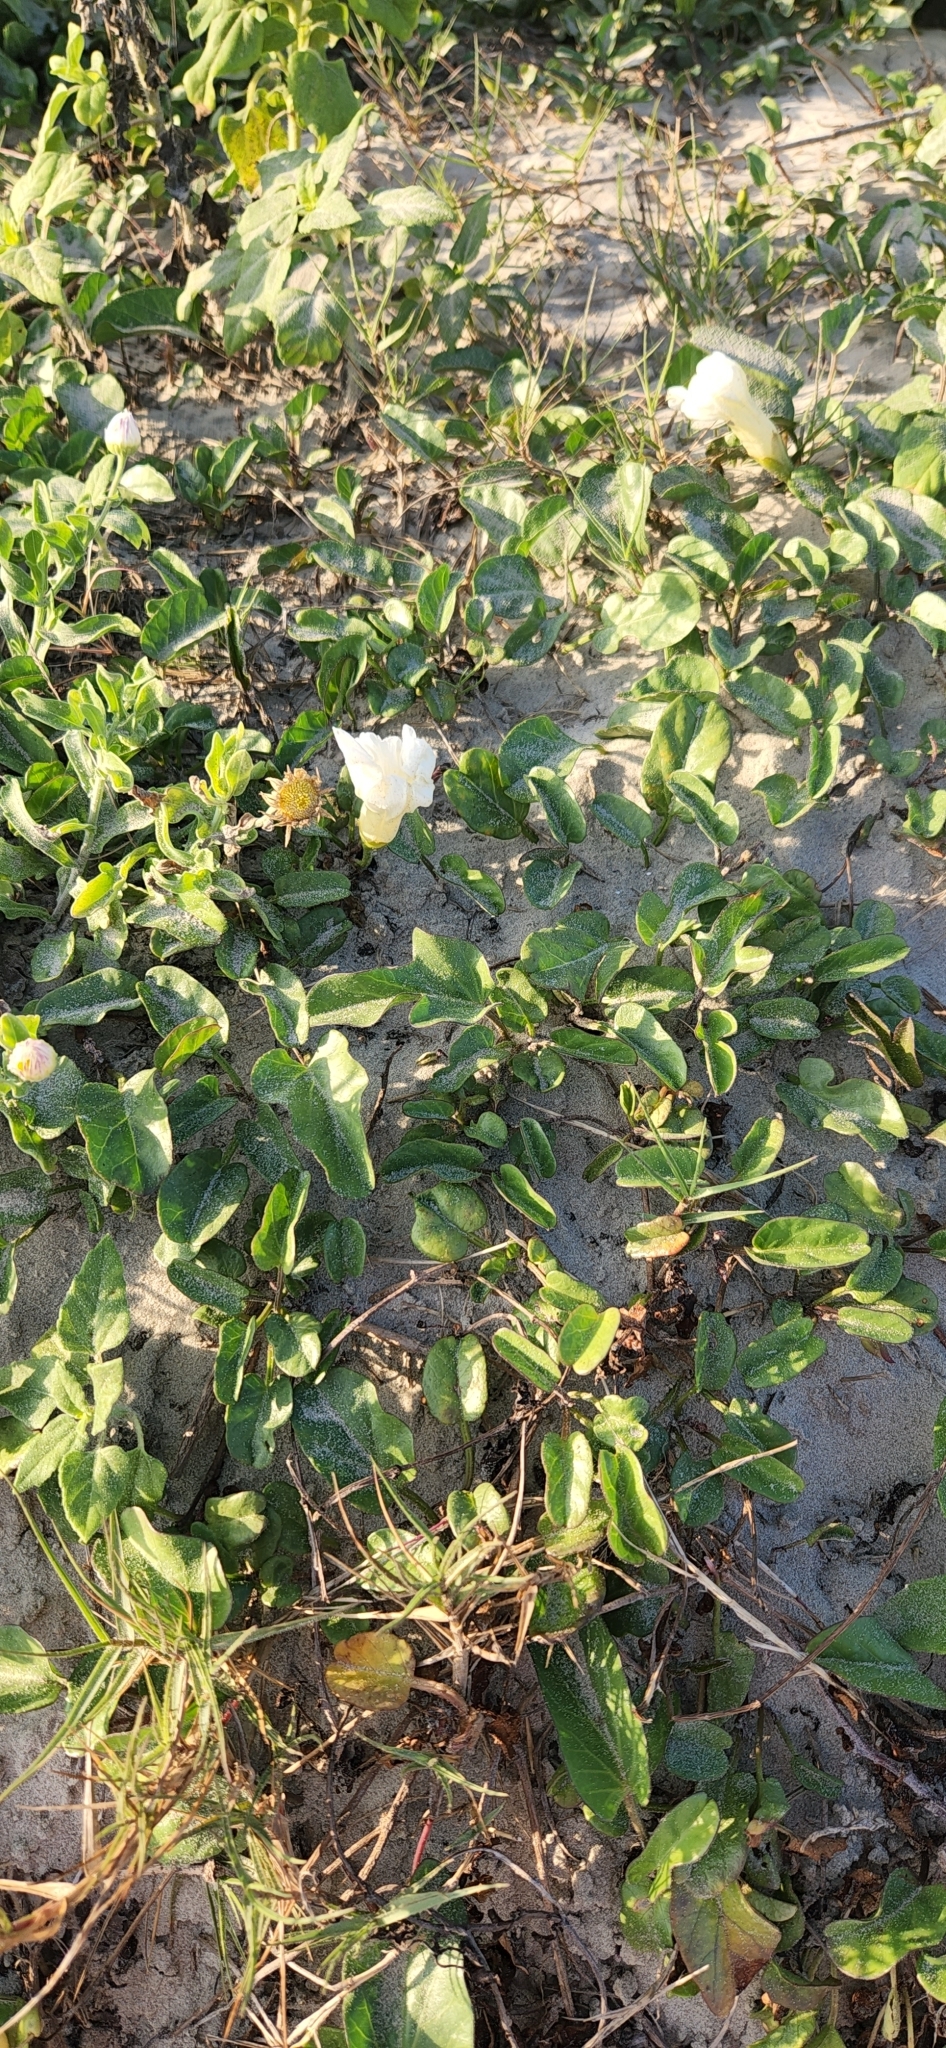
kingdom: Plantae
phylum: Tracheophyta
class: Magnoliopsida
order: Solanales
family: Convolvulaceae
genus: Ipomoea
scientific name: Ipomoea imperati
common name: Fiddle-leaf morning-glory
